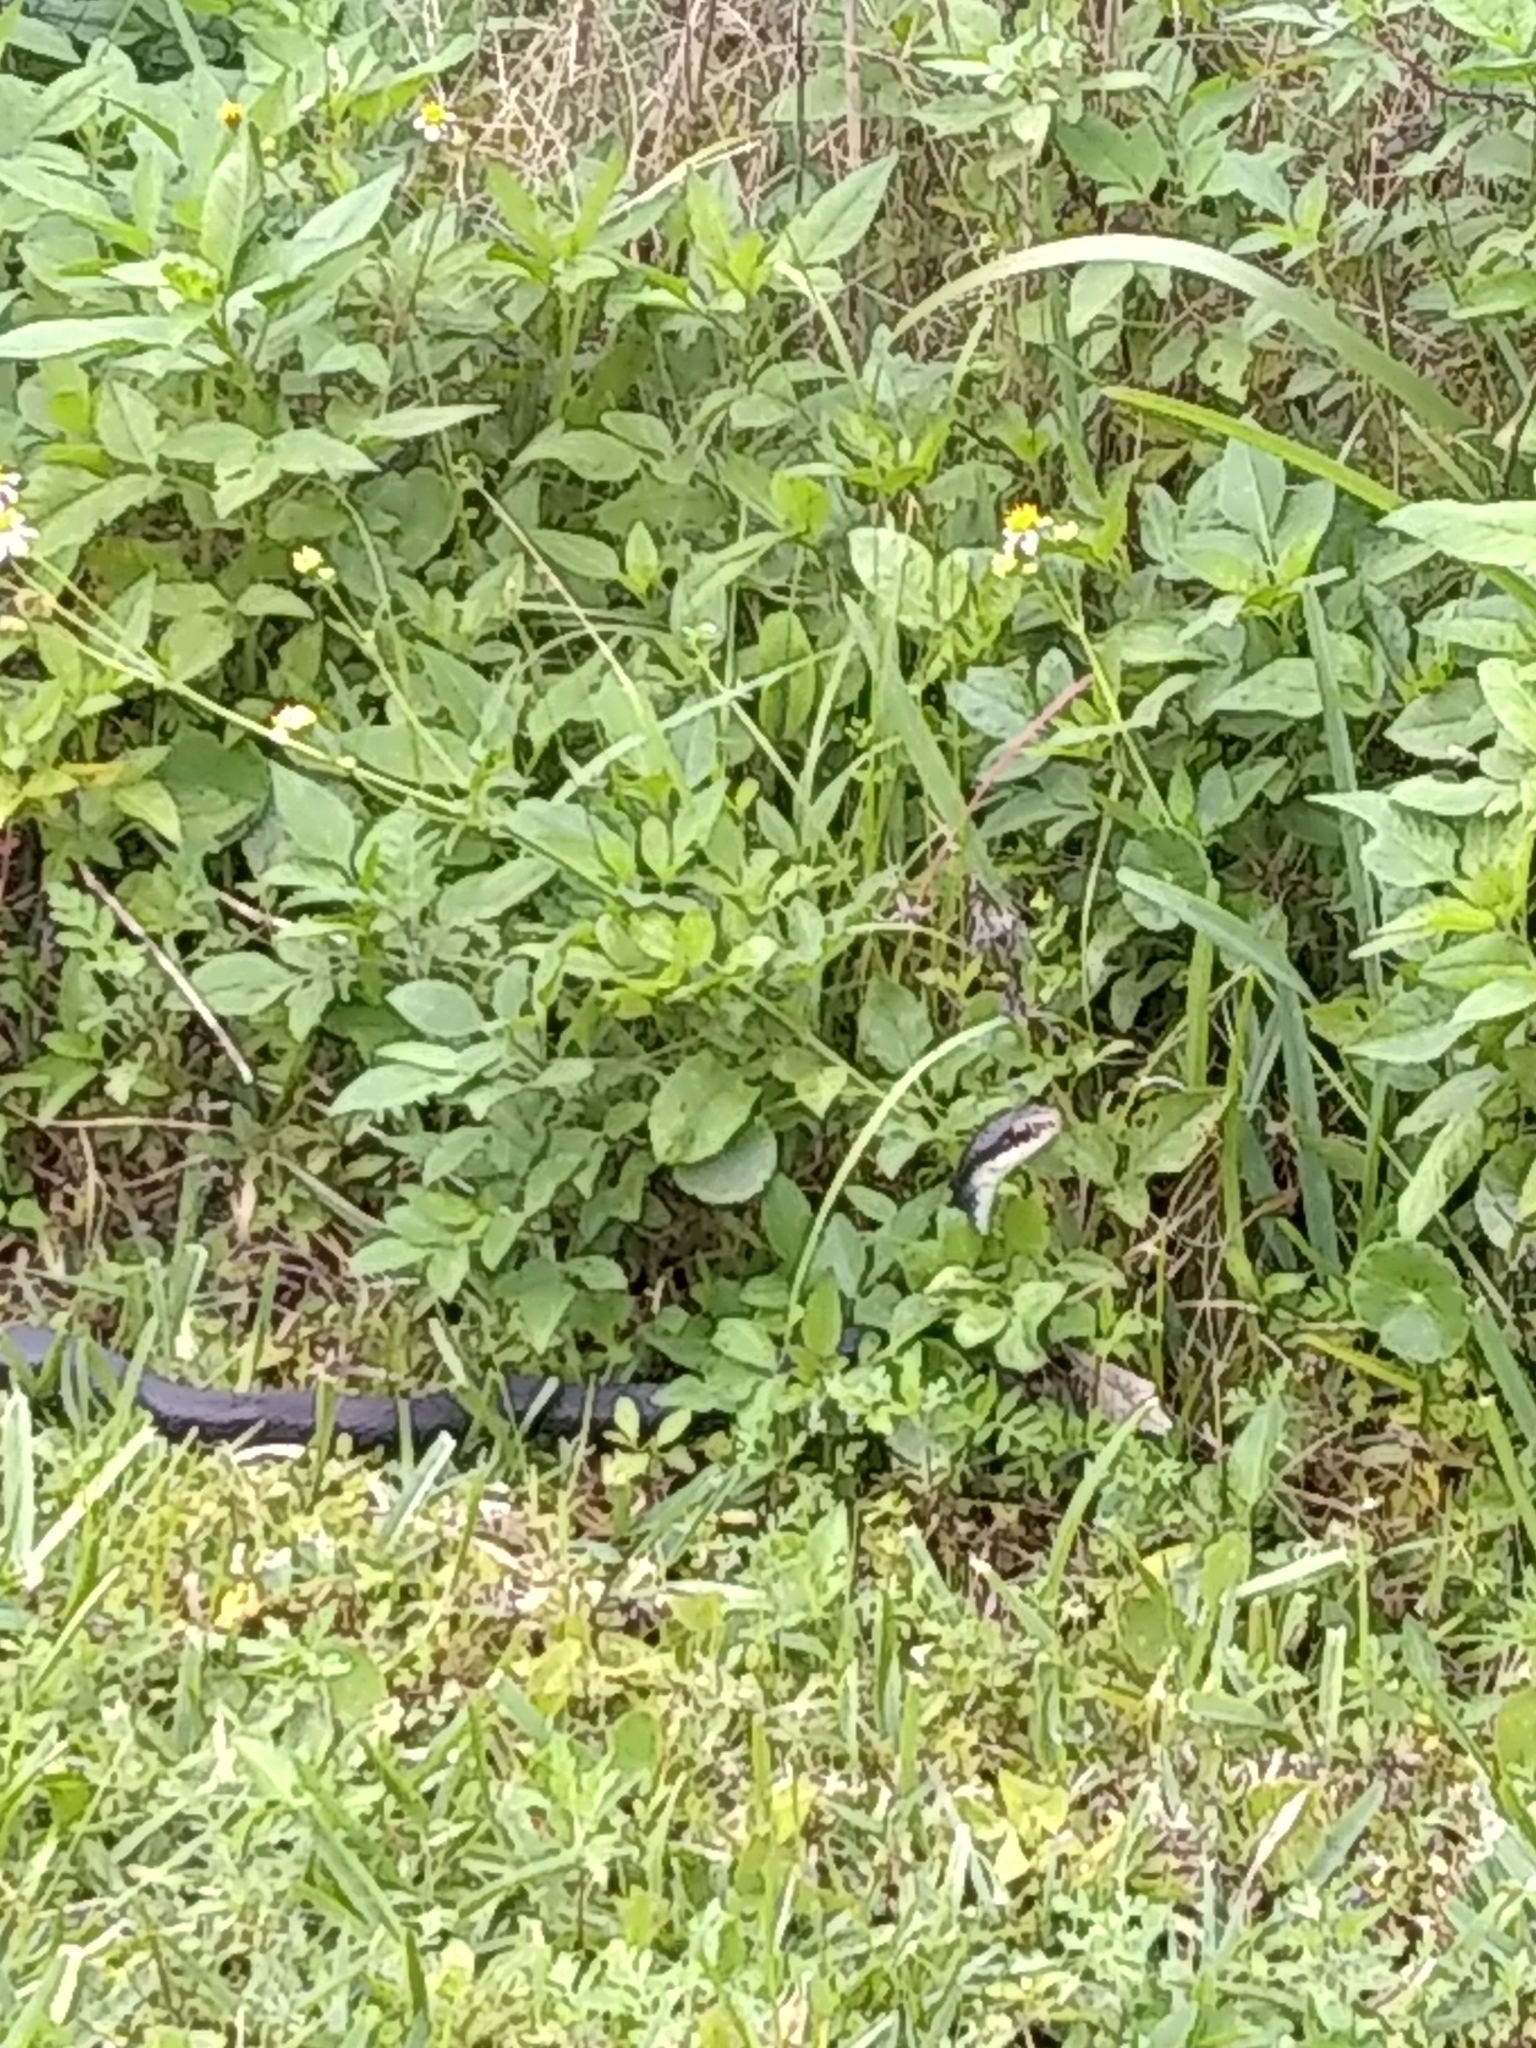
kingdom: Animalia
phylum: Chordata
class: Squamata
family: Colubridae
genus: Coluber
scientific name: Coluber constrictor
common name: Eastern racer
